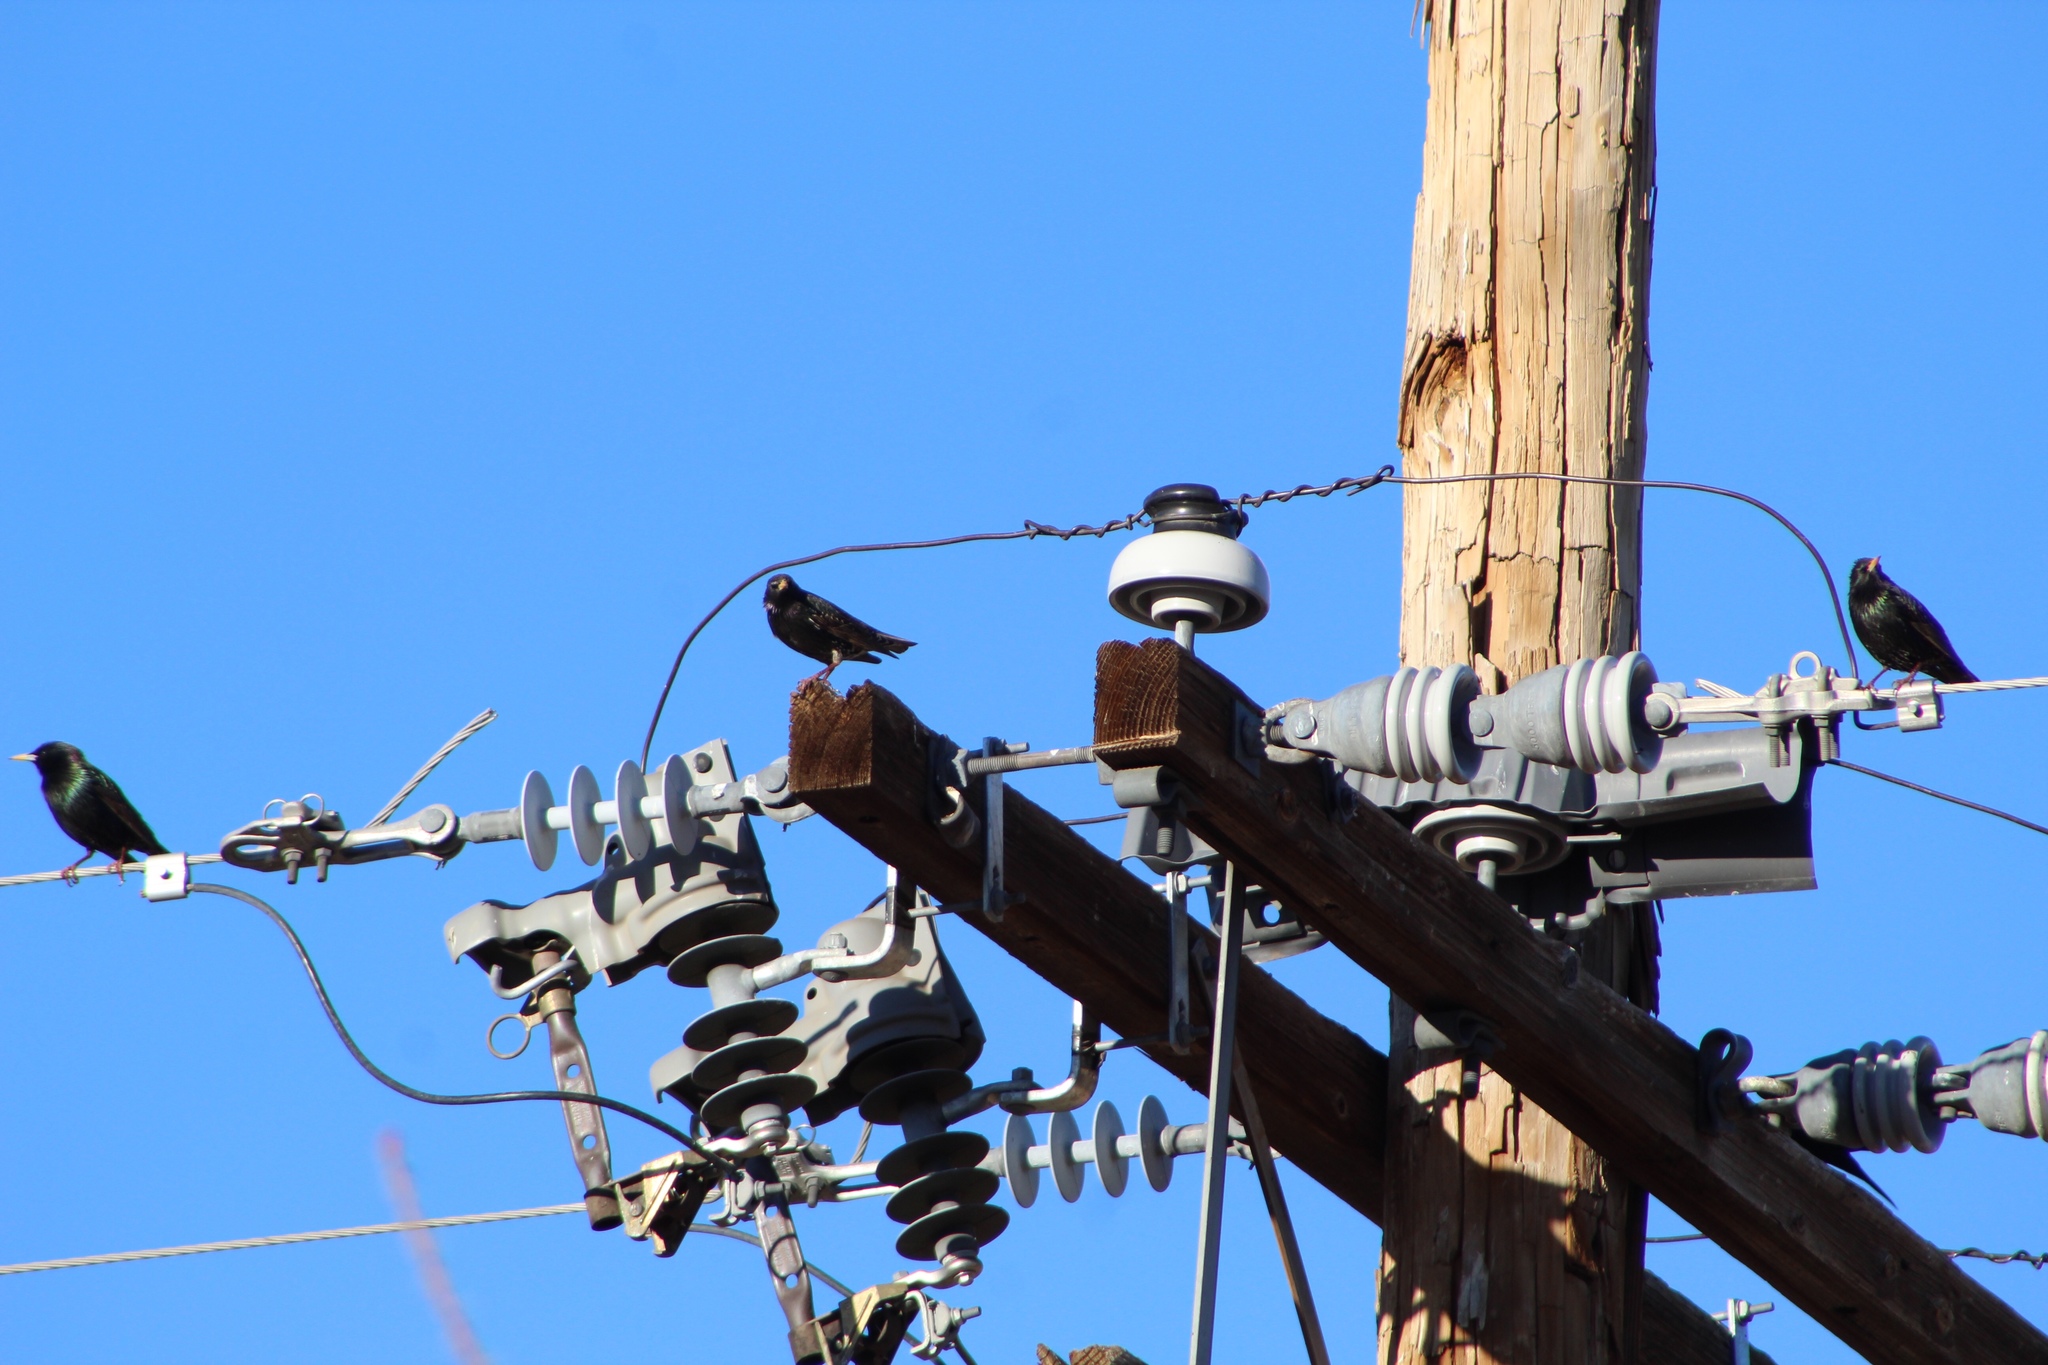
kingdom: Animalia
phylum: Chordata
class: Aves
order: Passeriformes
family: Sturnidae
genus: Sturnus
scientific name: Sturnus vulgaris
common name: Common starling
